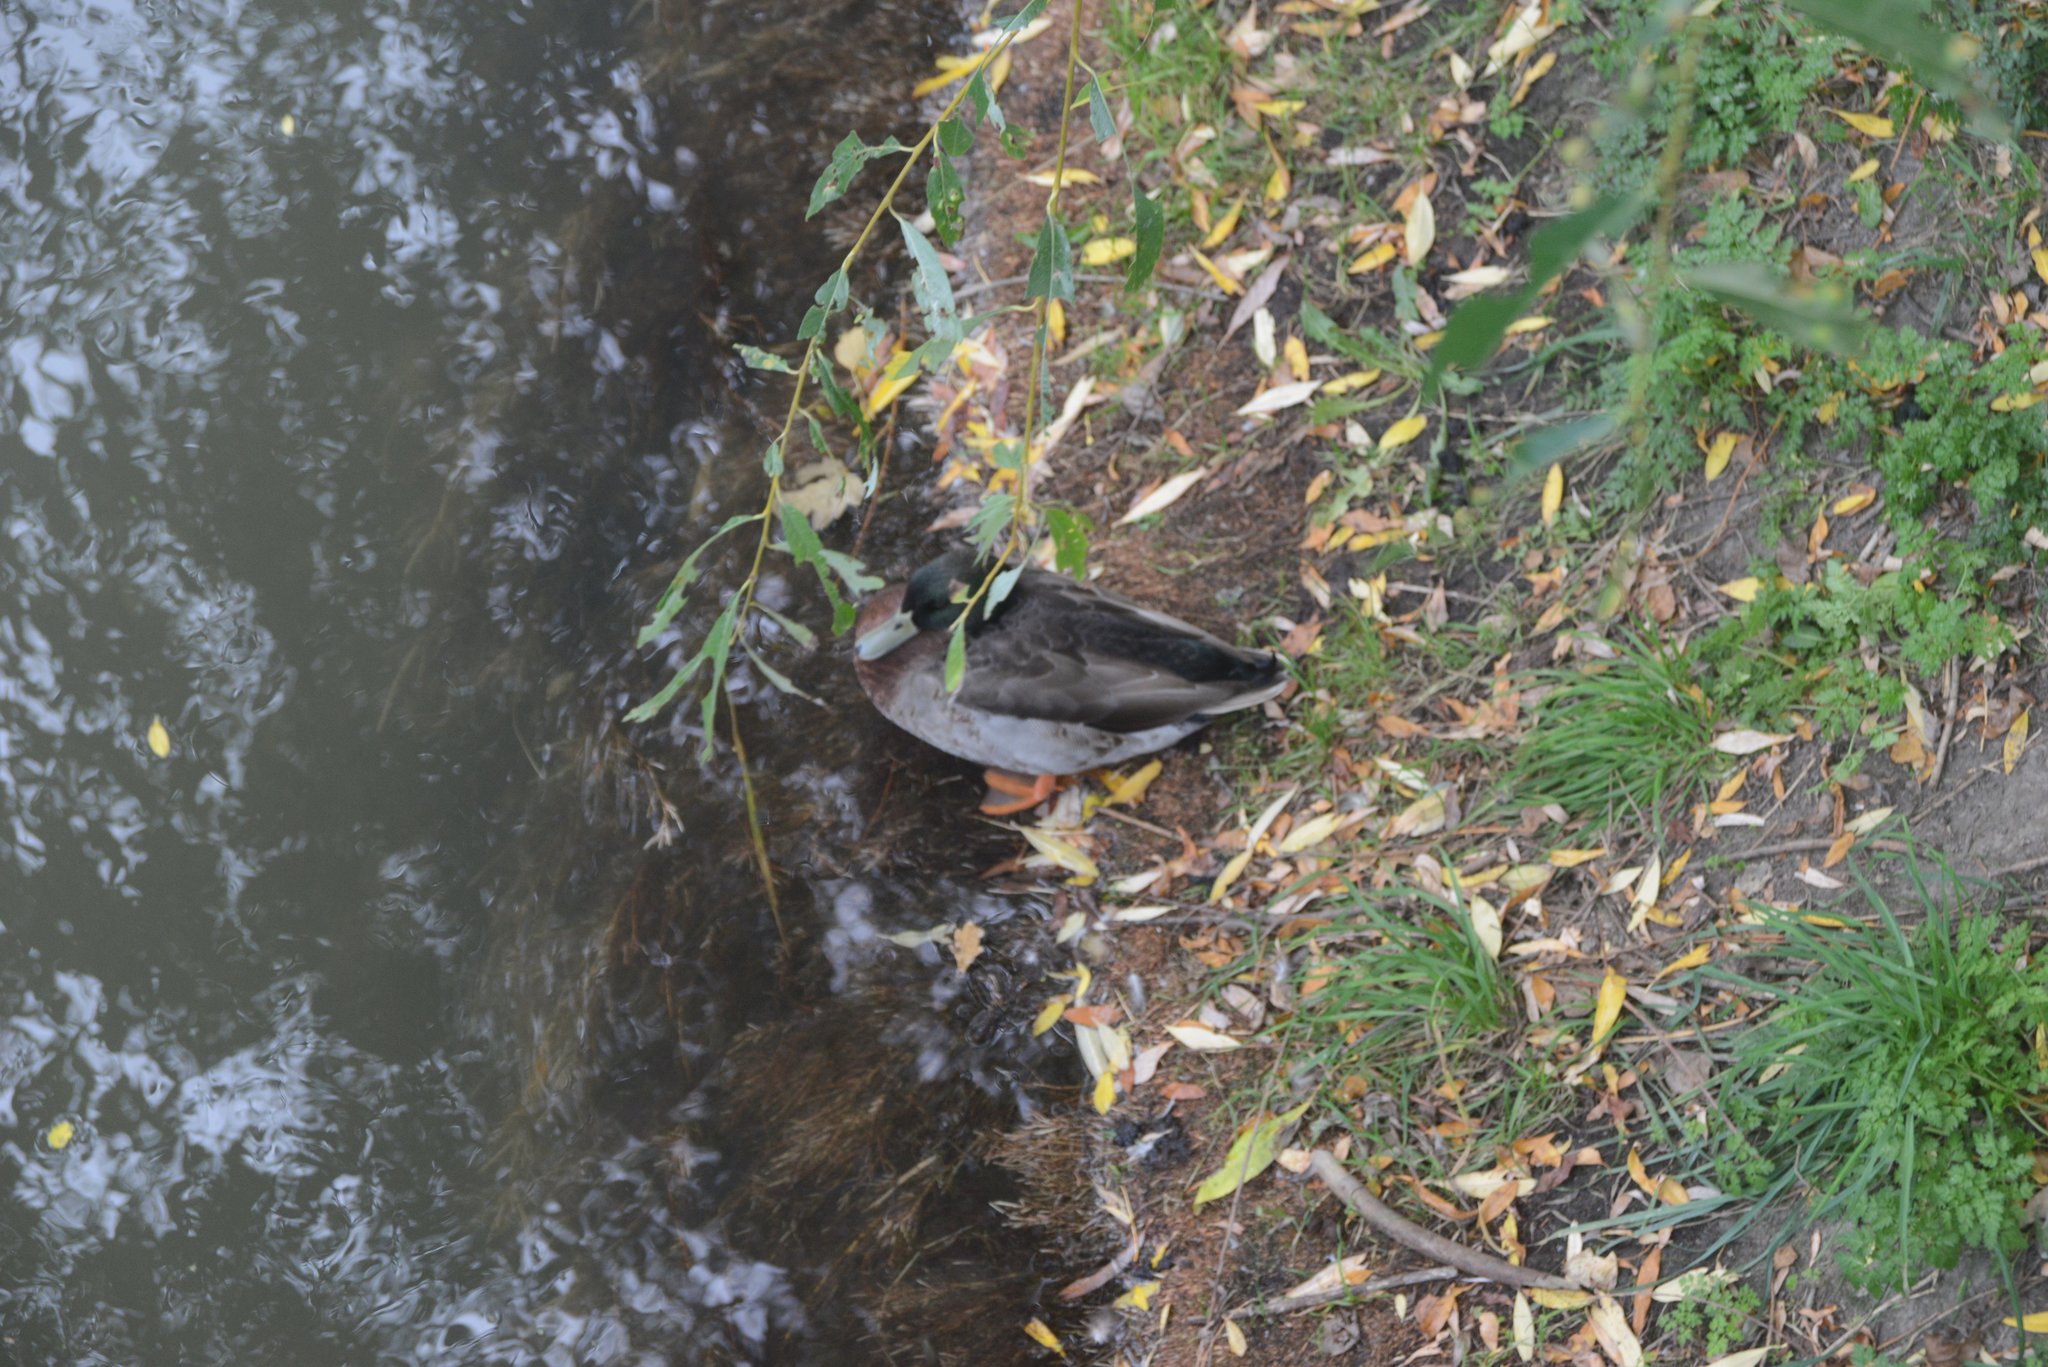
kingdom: Animalia
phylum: Chordata
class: Aves
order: Anseriformes
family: Anatidae
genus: Anas
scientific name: Anas platyrhynchos
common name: Mallard
